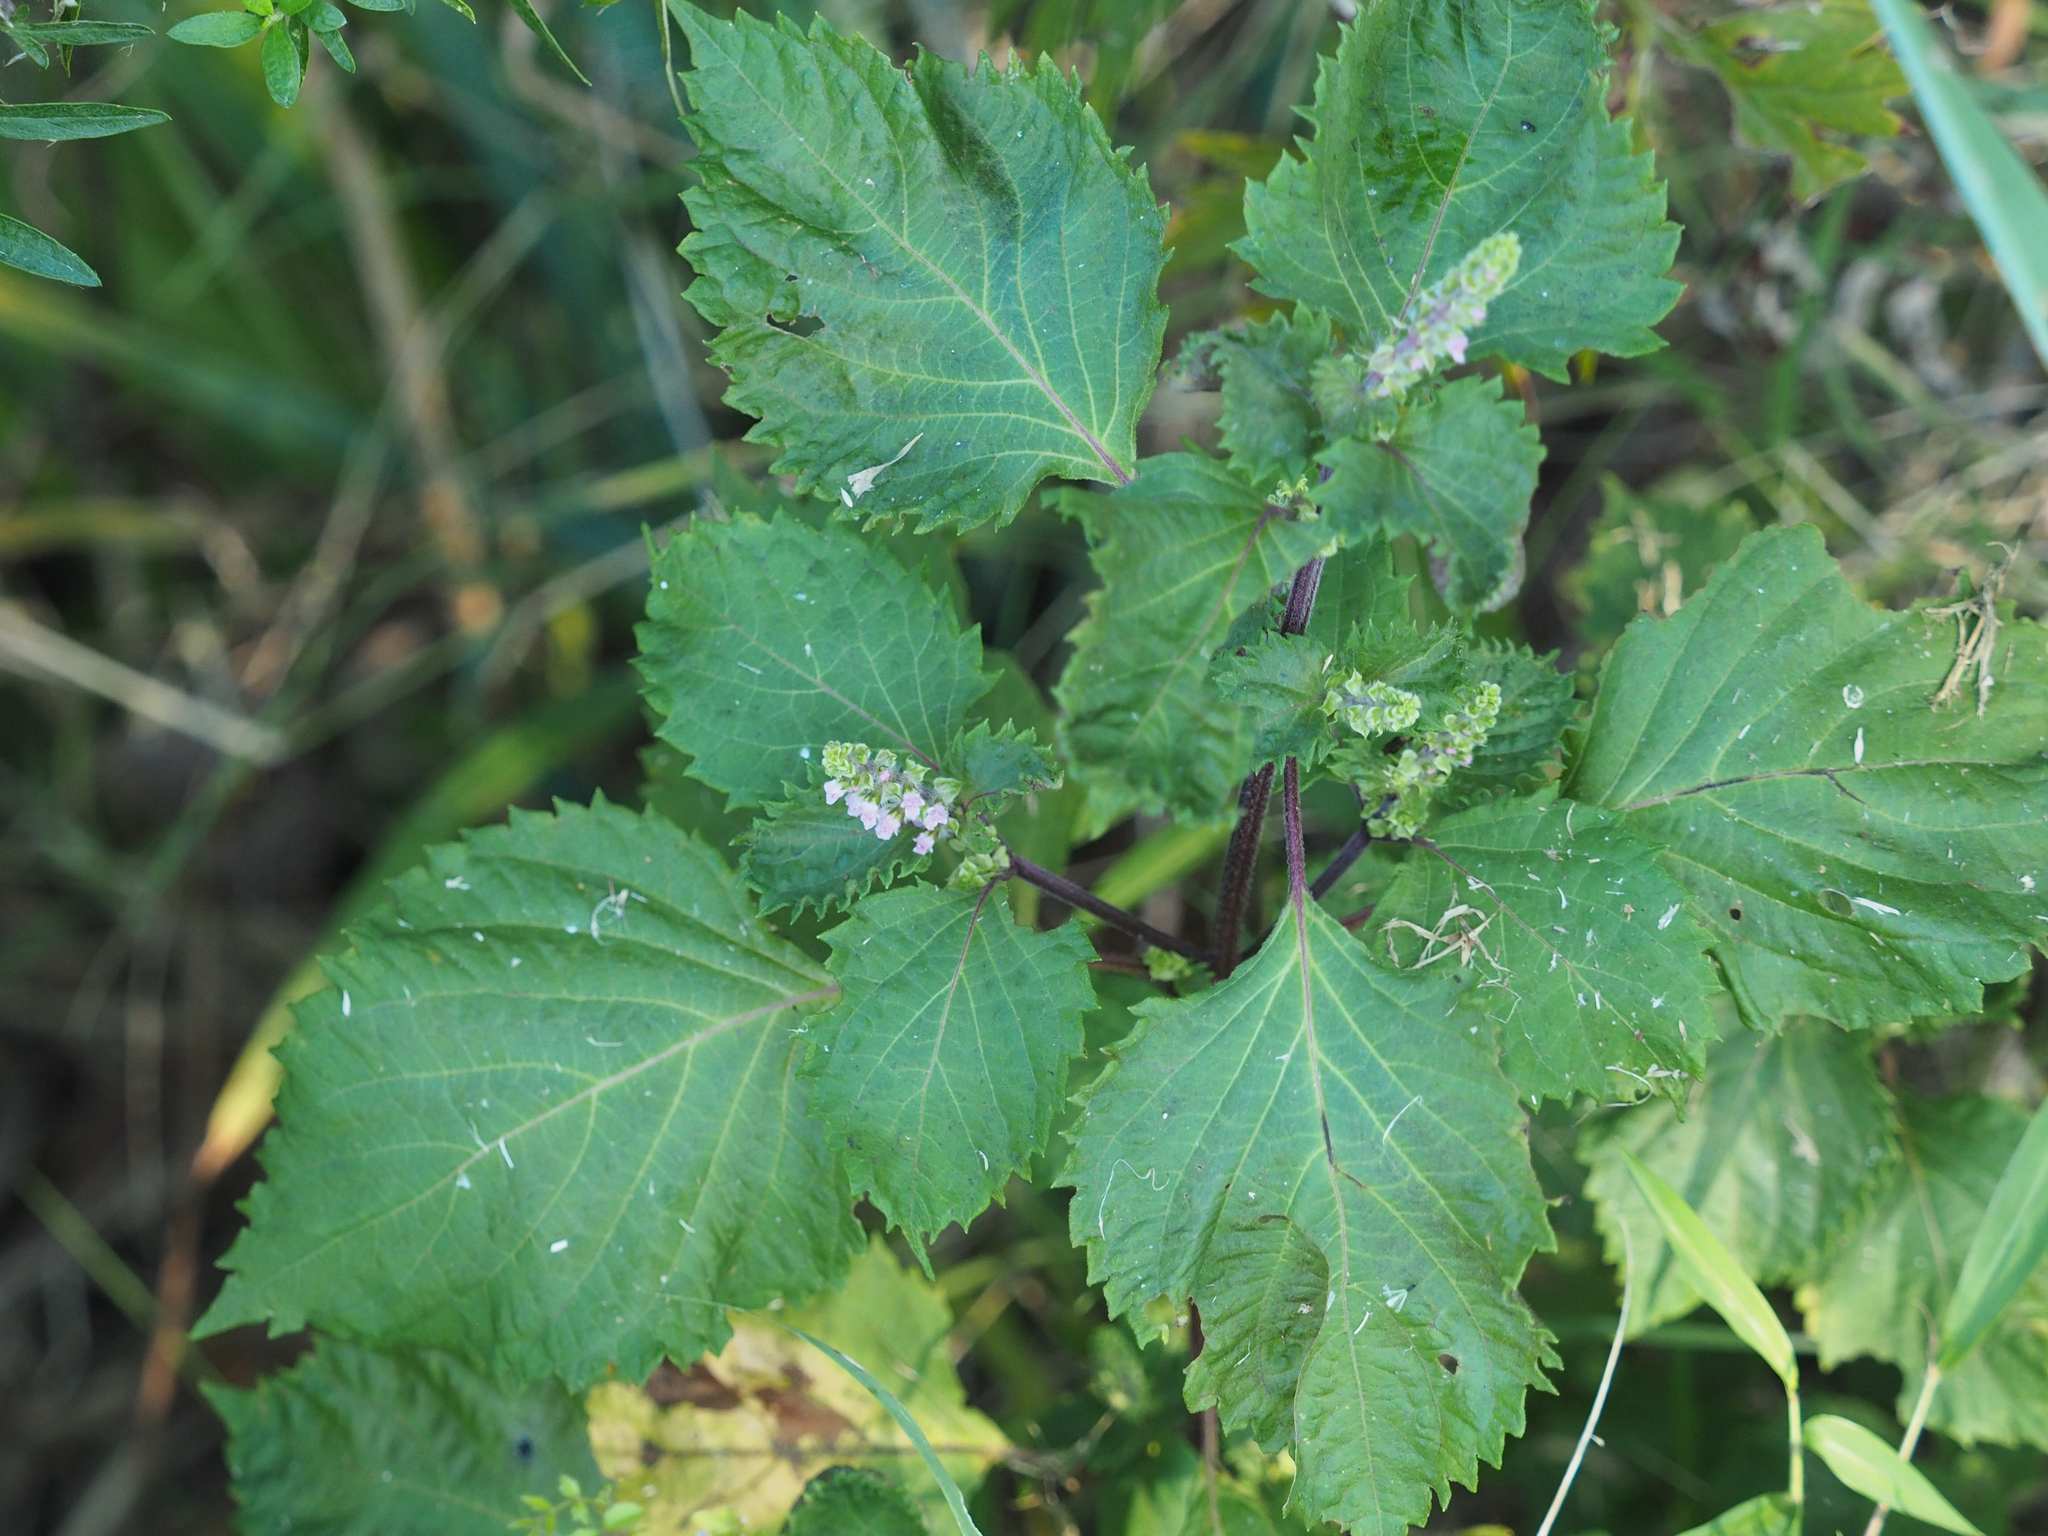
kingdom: Plantae
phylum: Tracheophyta
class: Magnoliopsida
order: Lamiales
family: Lamiaceae
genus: Perilla
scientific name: Perilla frutescens
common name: Perilla
